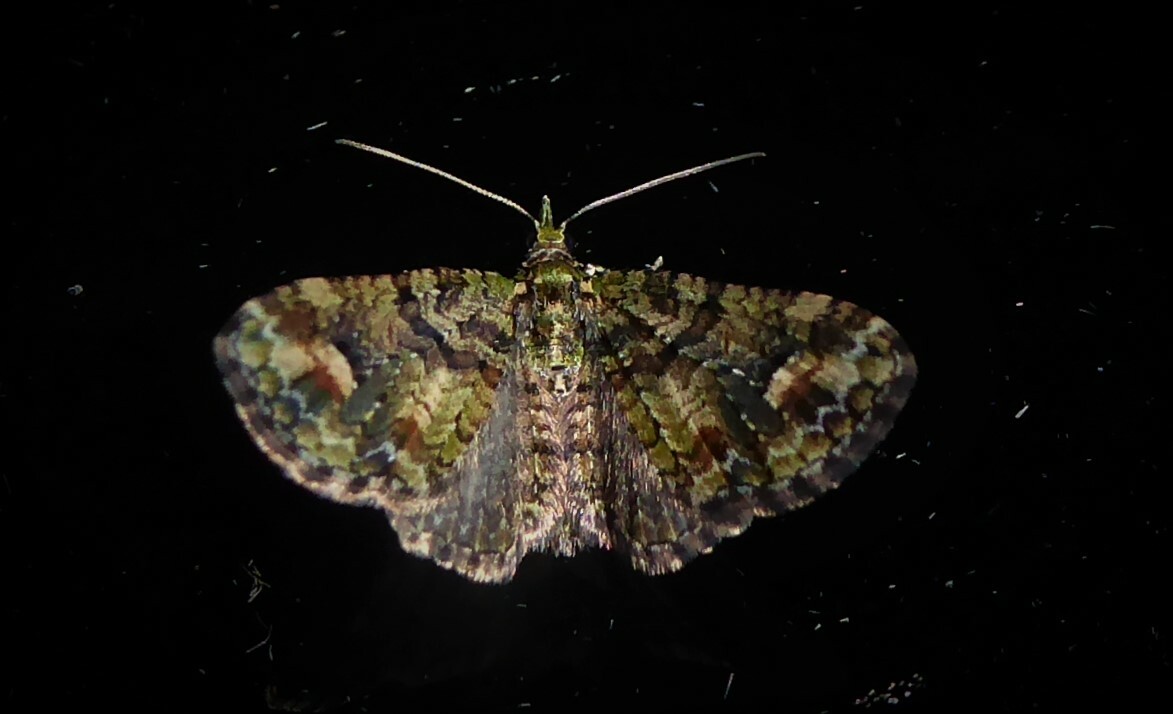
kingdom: Animalia
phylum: Arthropoda
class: Insecta
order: Lepidoptera
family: Geometridae
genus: Idaea
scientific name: Idaea mutanda
